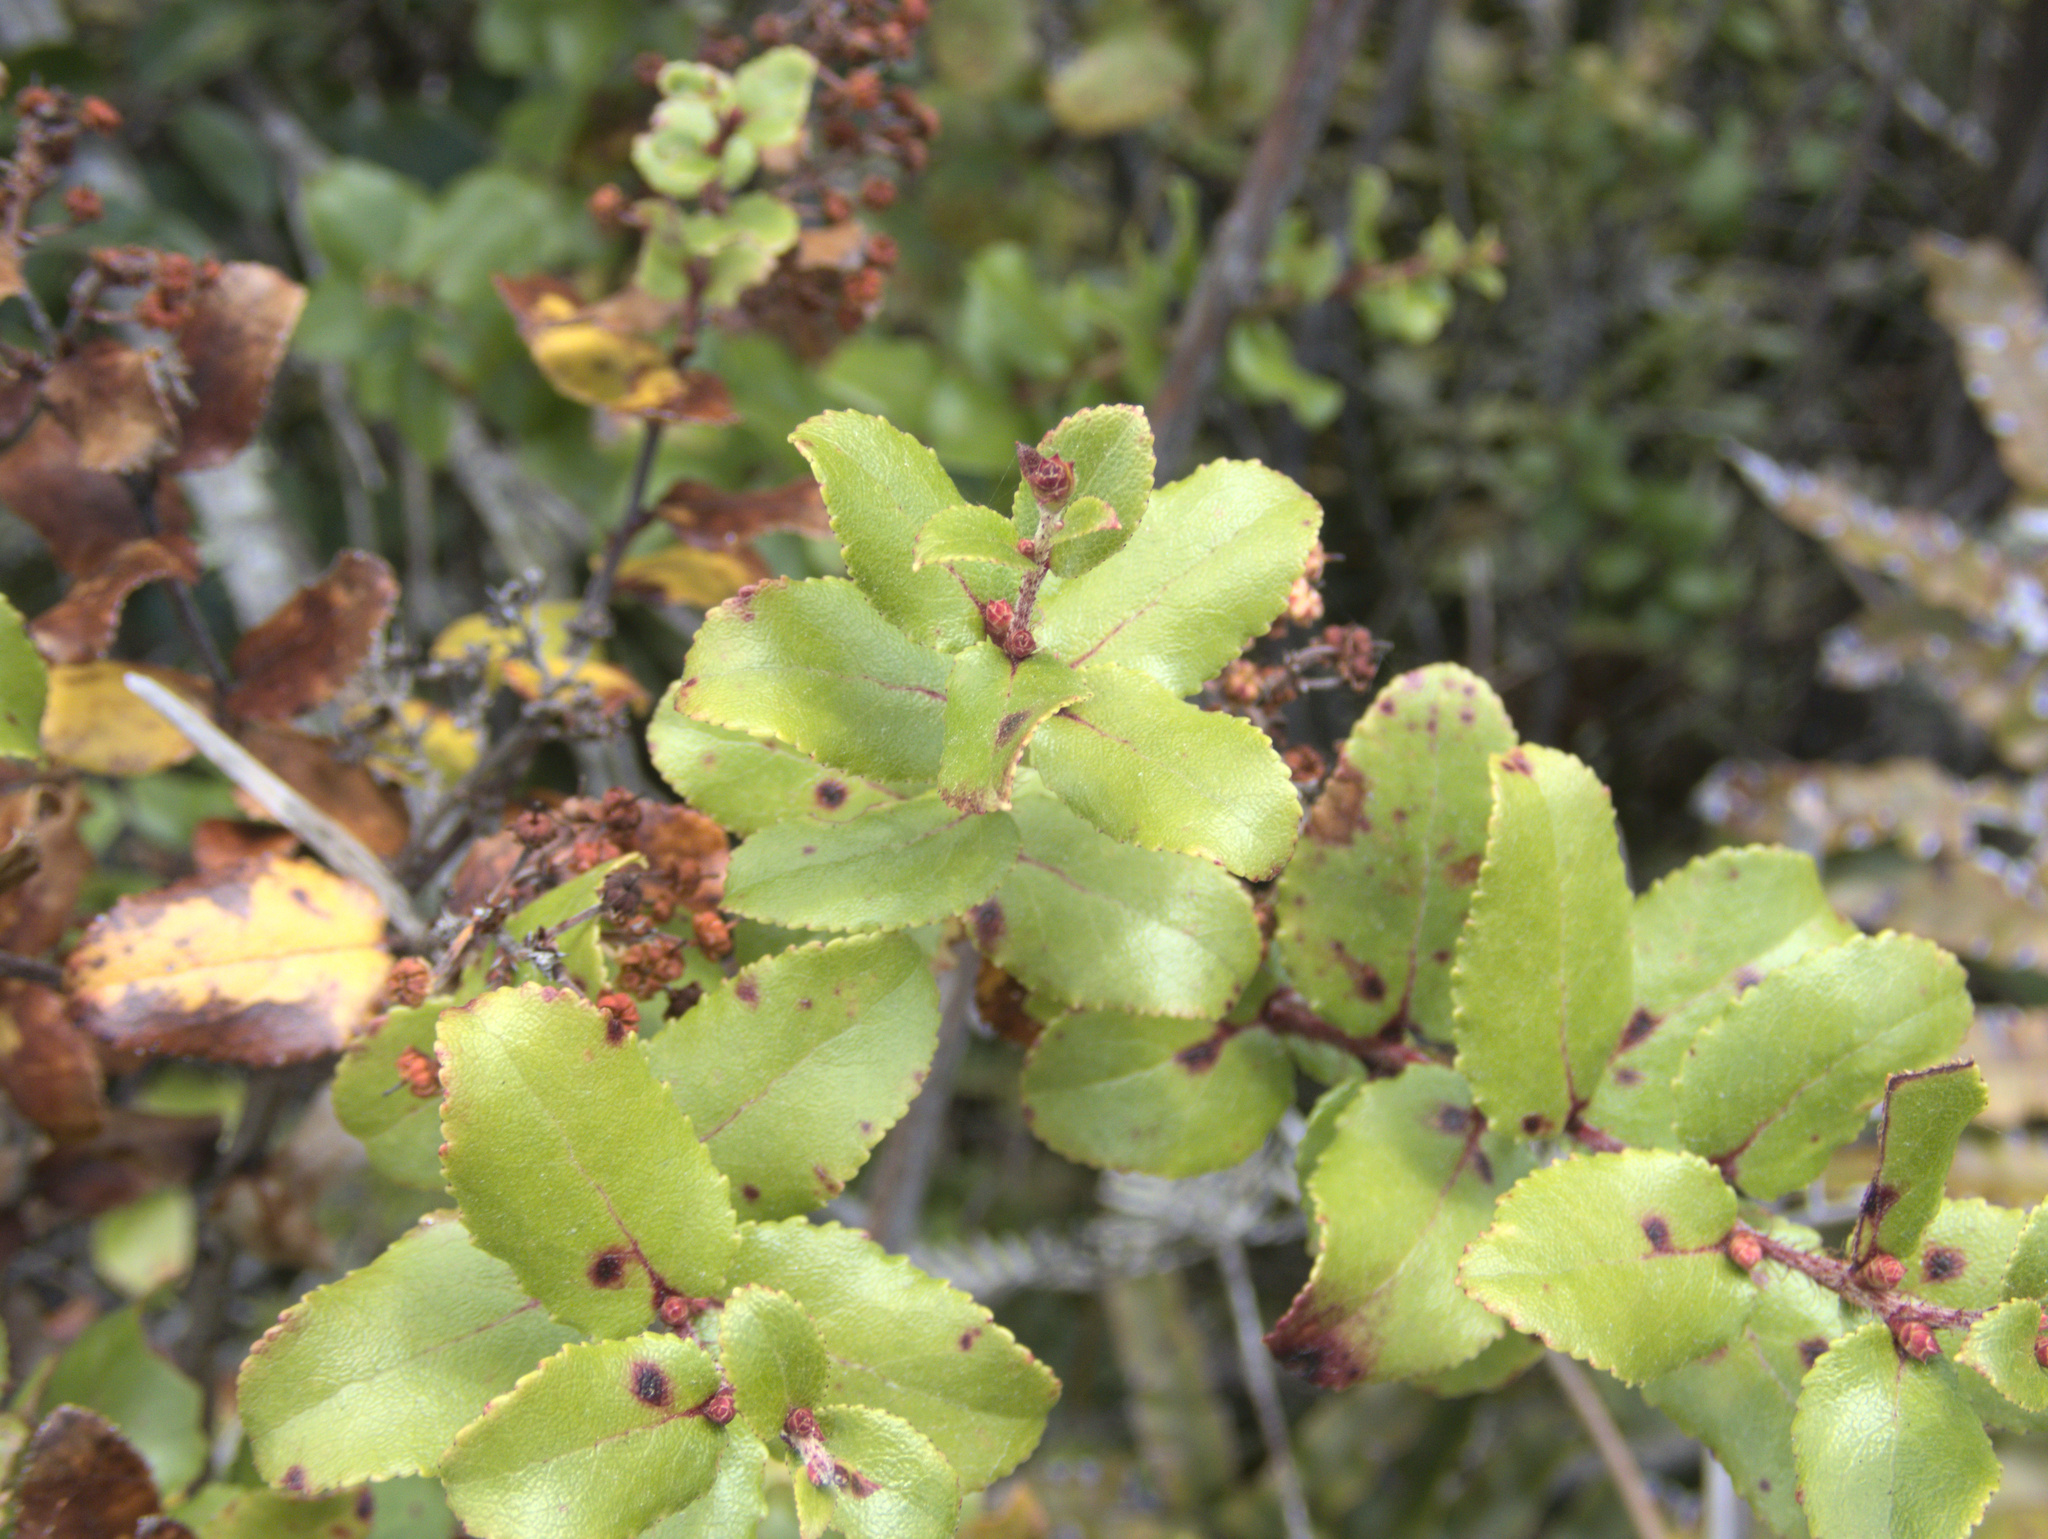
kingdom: Plantae
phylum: Tracheophyta
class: Magnoliopsida
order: Ericales
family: Ericaceae
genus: Gaultheria
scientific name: Gaultheria antipoda
